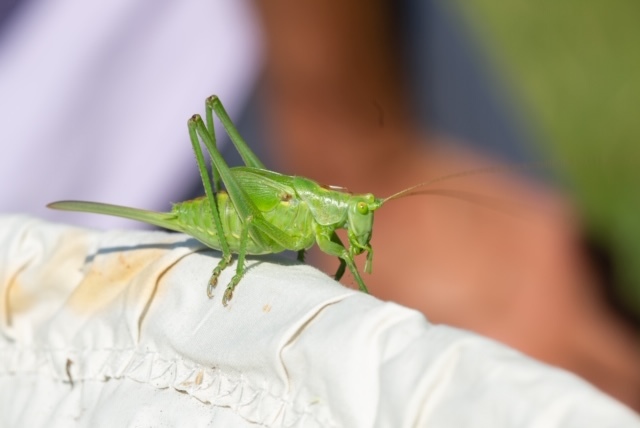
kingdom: Animalia
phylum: Arthropoda
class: Insecta
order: Orthoptera
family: Tettigoniidae
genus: Tettigonia
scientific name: Tettigonia viridissima
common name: Great green bush-cricket
